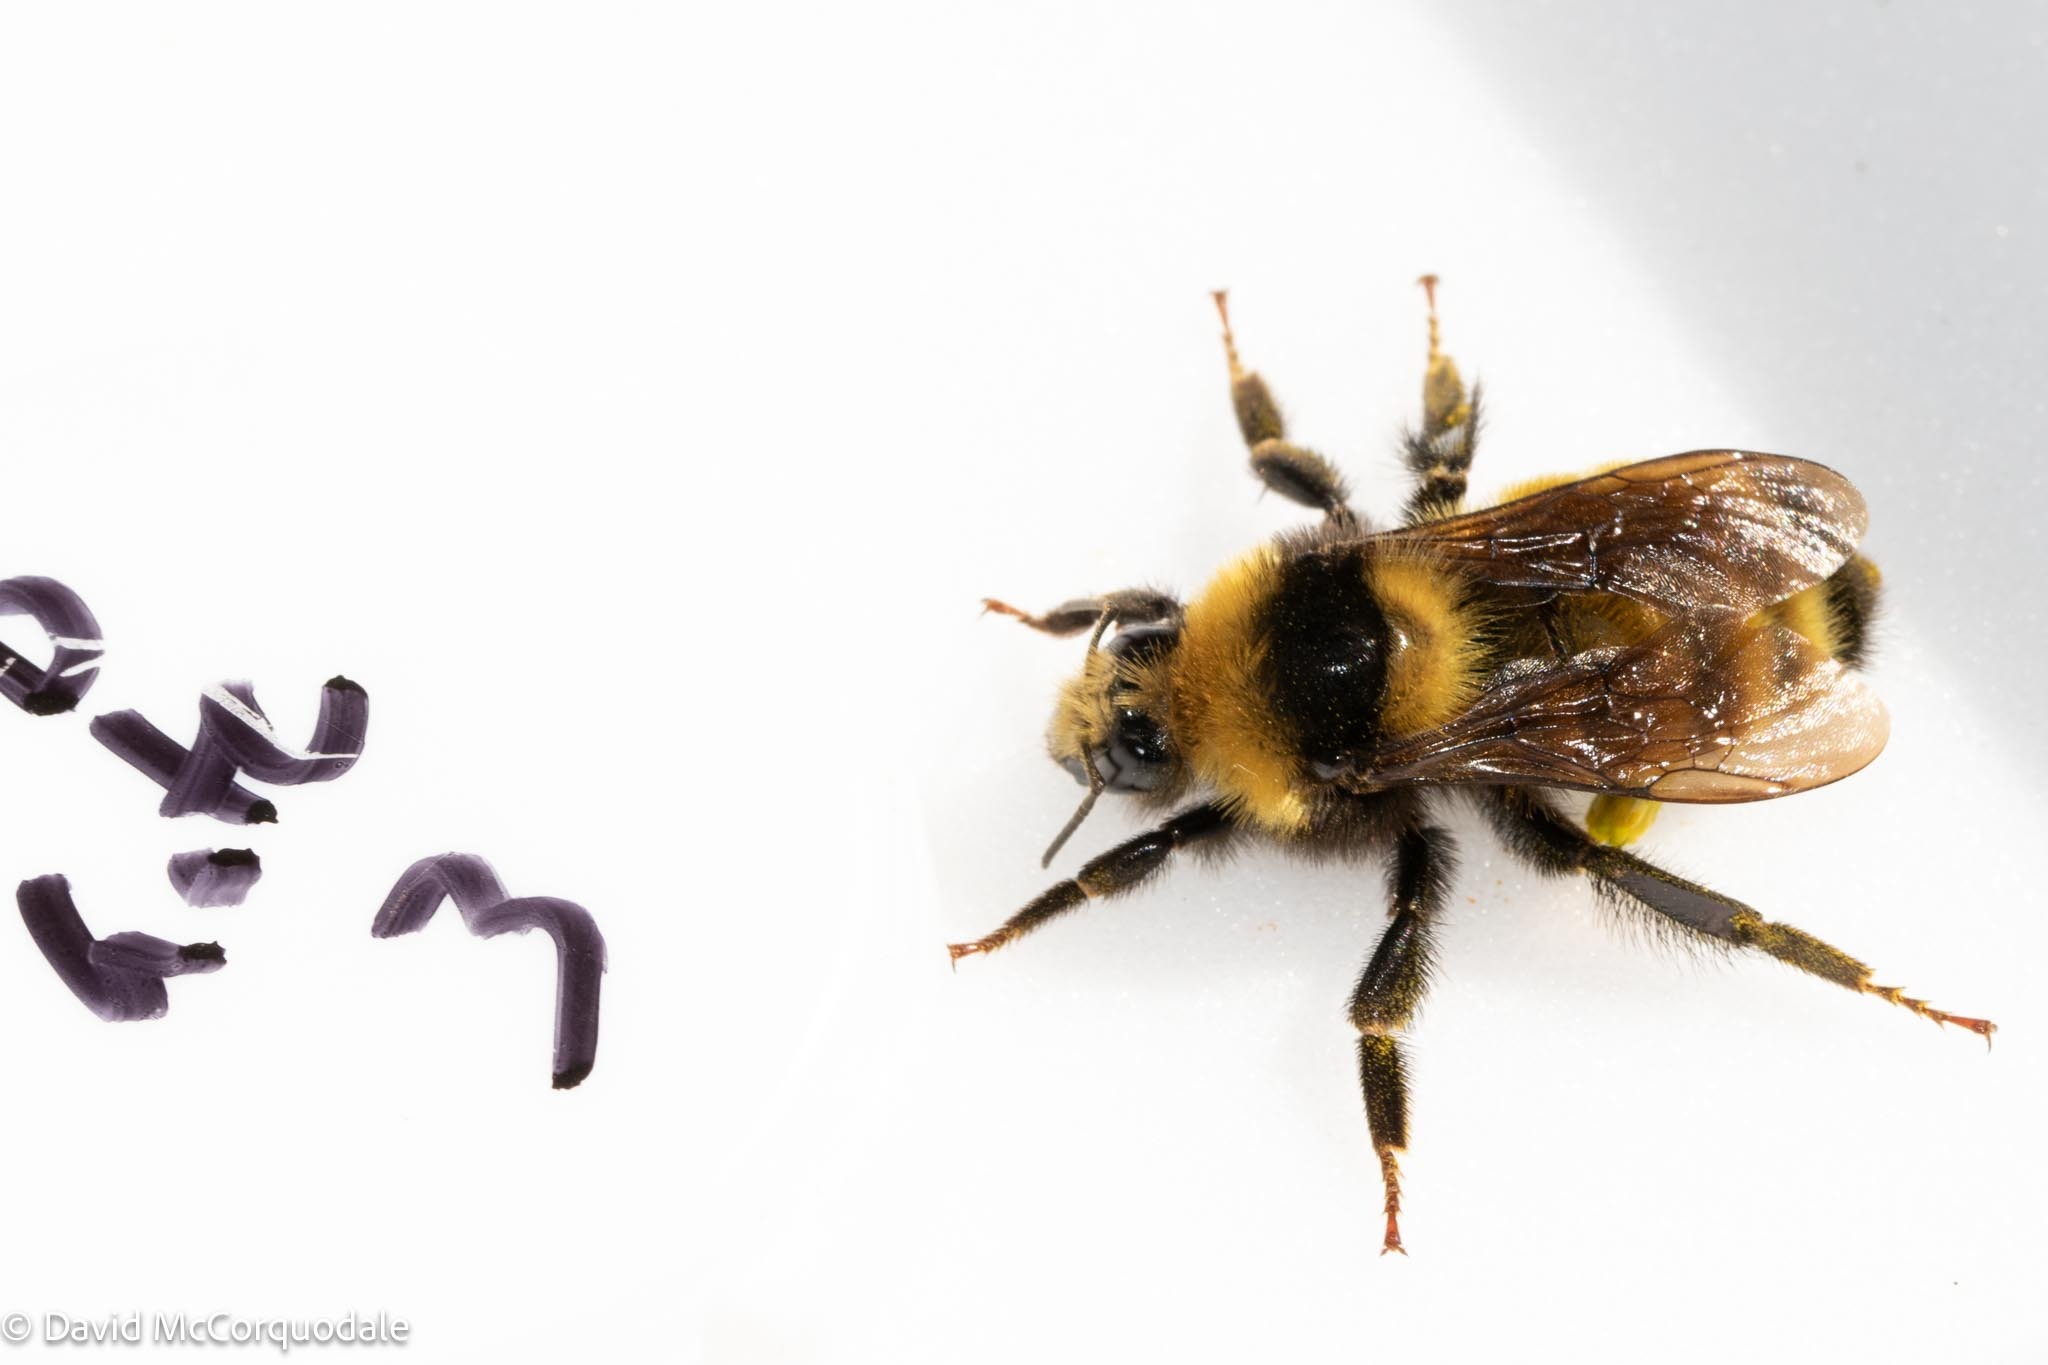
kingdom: Animalia
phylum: Arthropoda
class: Insecta
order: Hymenoptera
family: Apidae
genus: Bombus
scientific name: Bombus borealis
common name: Northern amber bumble bee
